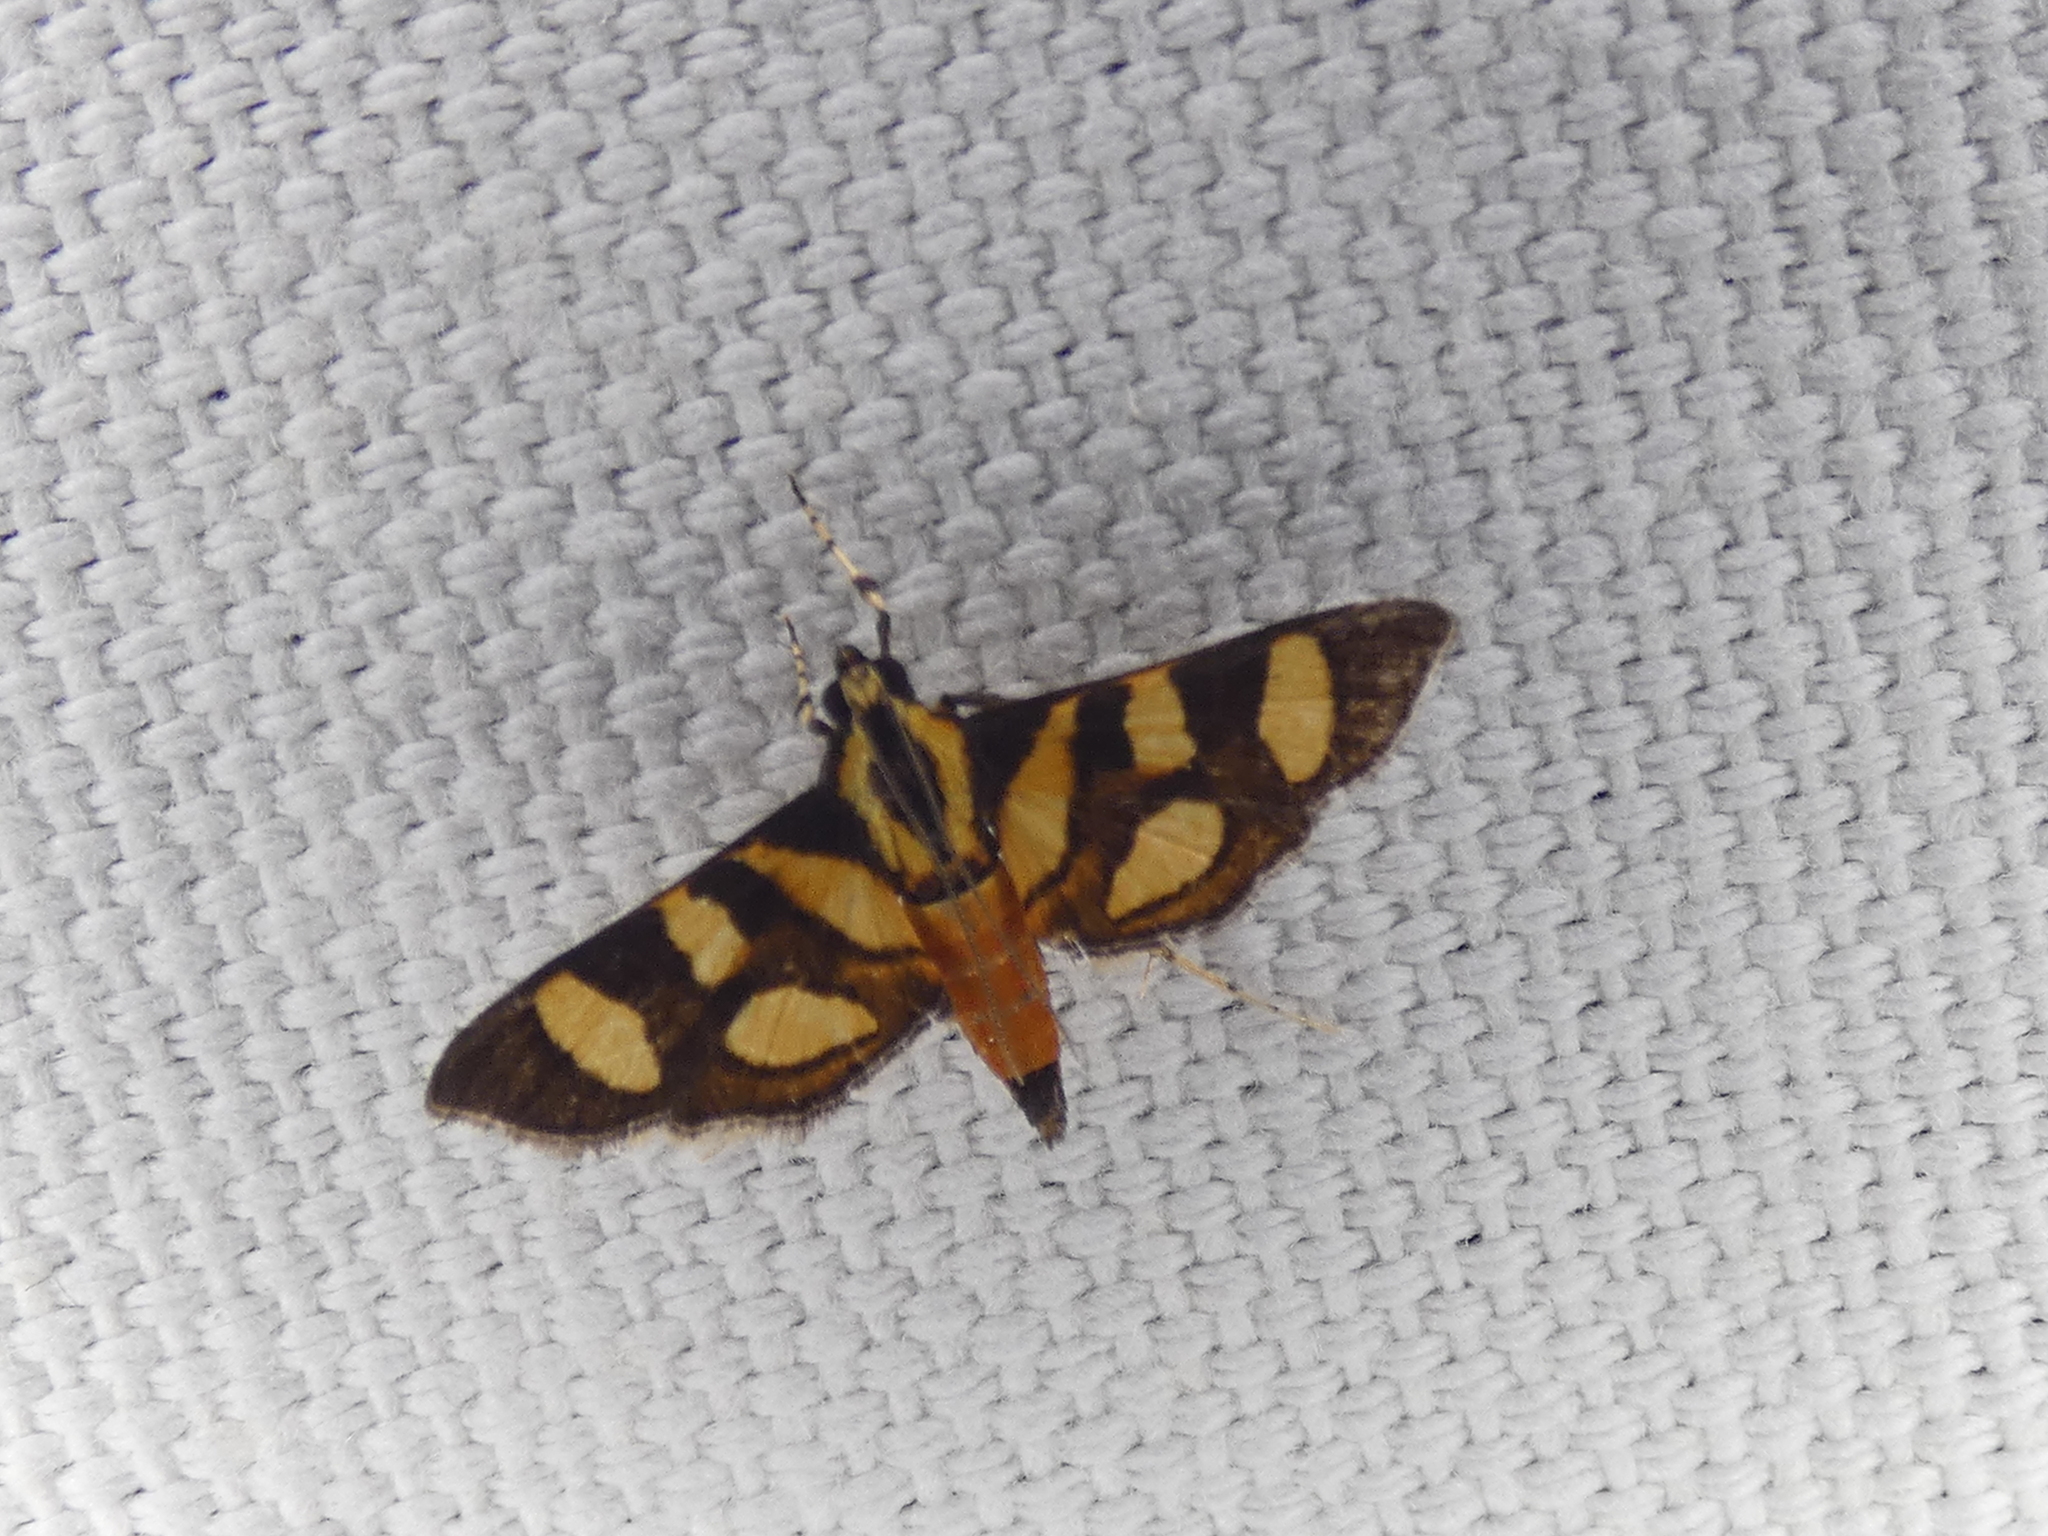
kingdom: Animalia
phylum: Arthropoda
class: Insecta
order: Lepidoptera
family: Crambidae
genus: Syngamia
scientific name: Syngamia florella
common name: Orange-spotted flower moth
